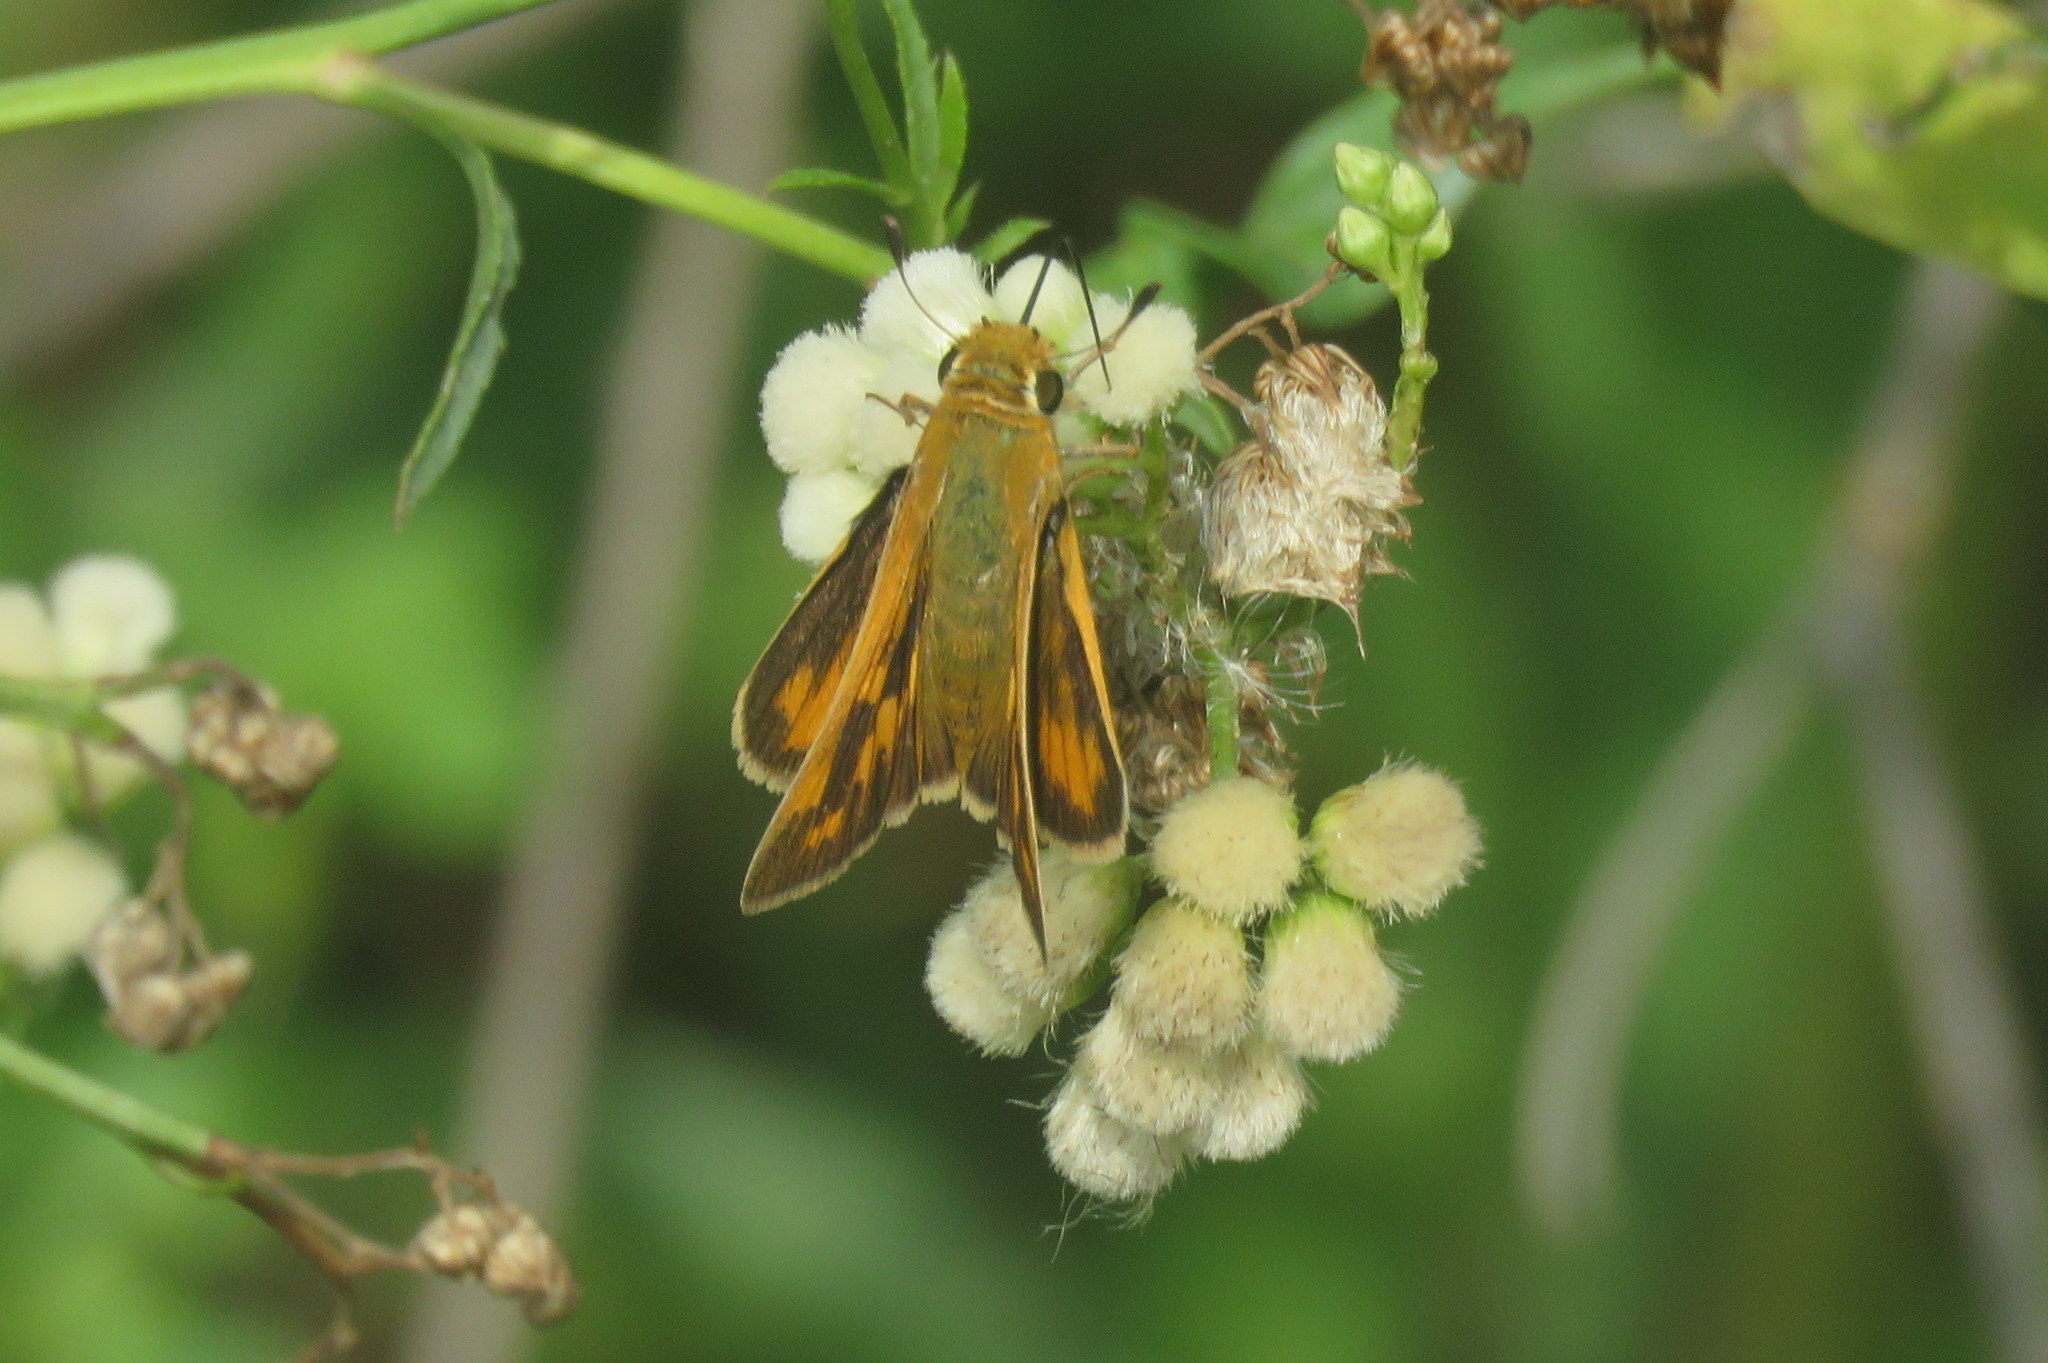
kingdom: Animalia
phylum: Arthropoda
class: Insecta
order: Lepidoptera
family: Hesperiidae
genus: Hylephila
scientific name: Hylephila phyleus
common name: Fiery skipper
